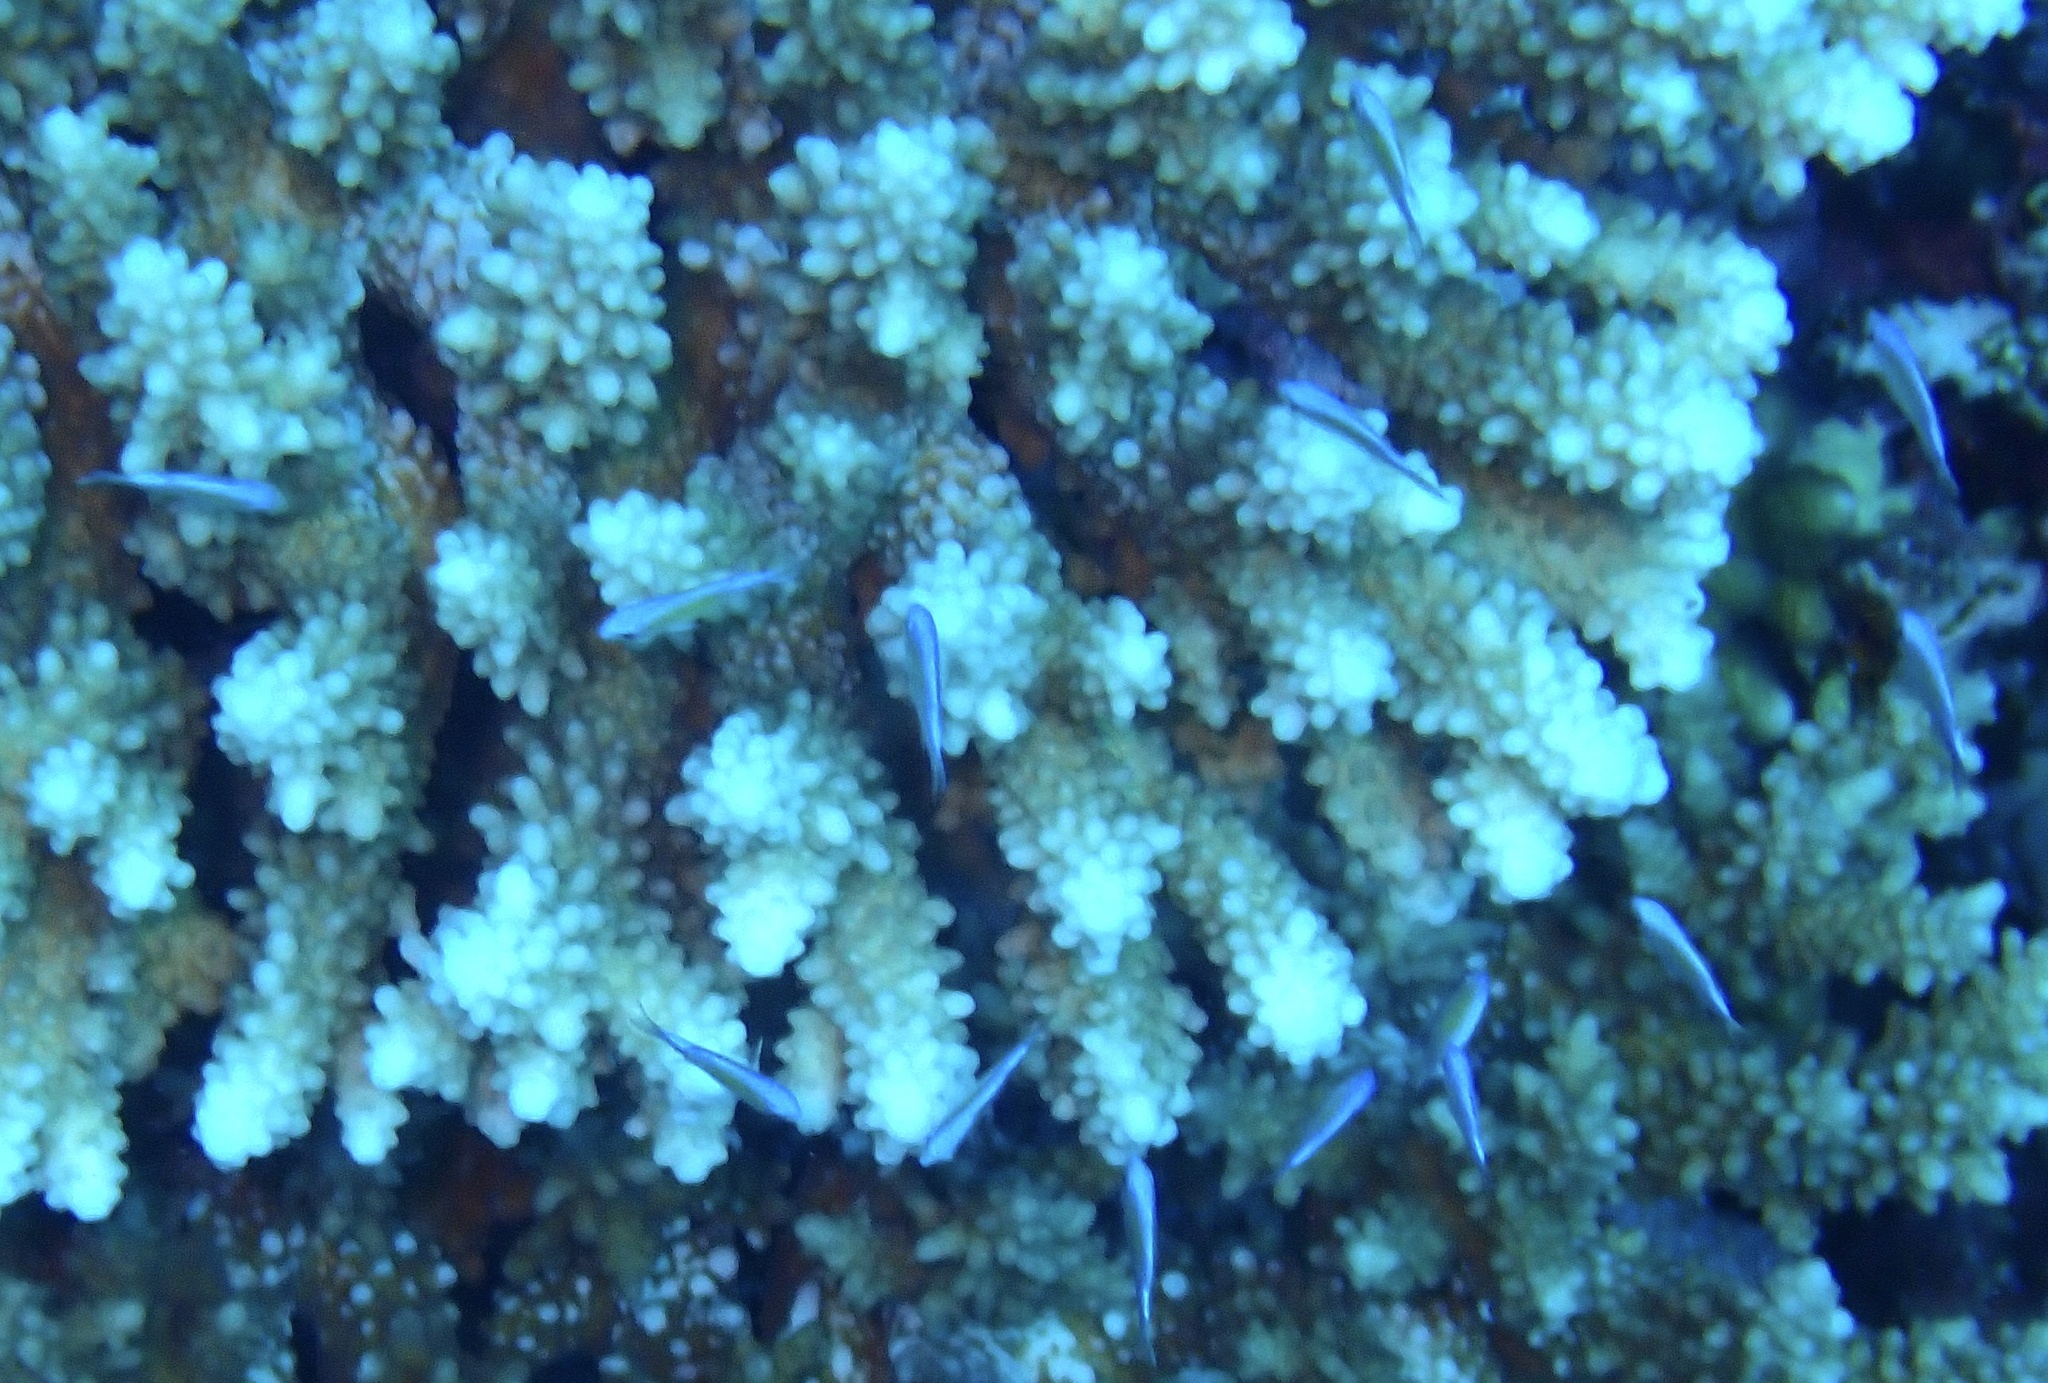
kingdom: Animalia
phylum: Chordata
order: Perciformes
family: Pomacentridae
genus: Chromis
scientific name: Chromis viridis
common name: Blue-green chromis
